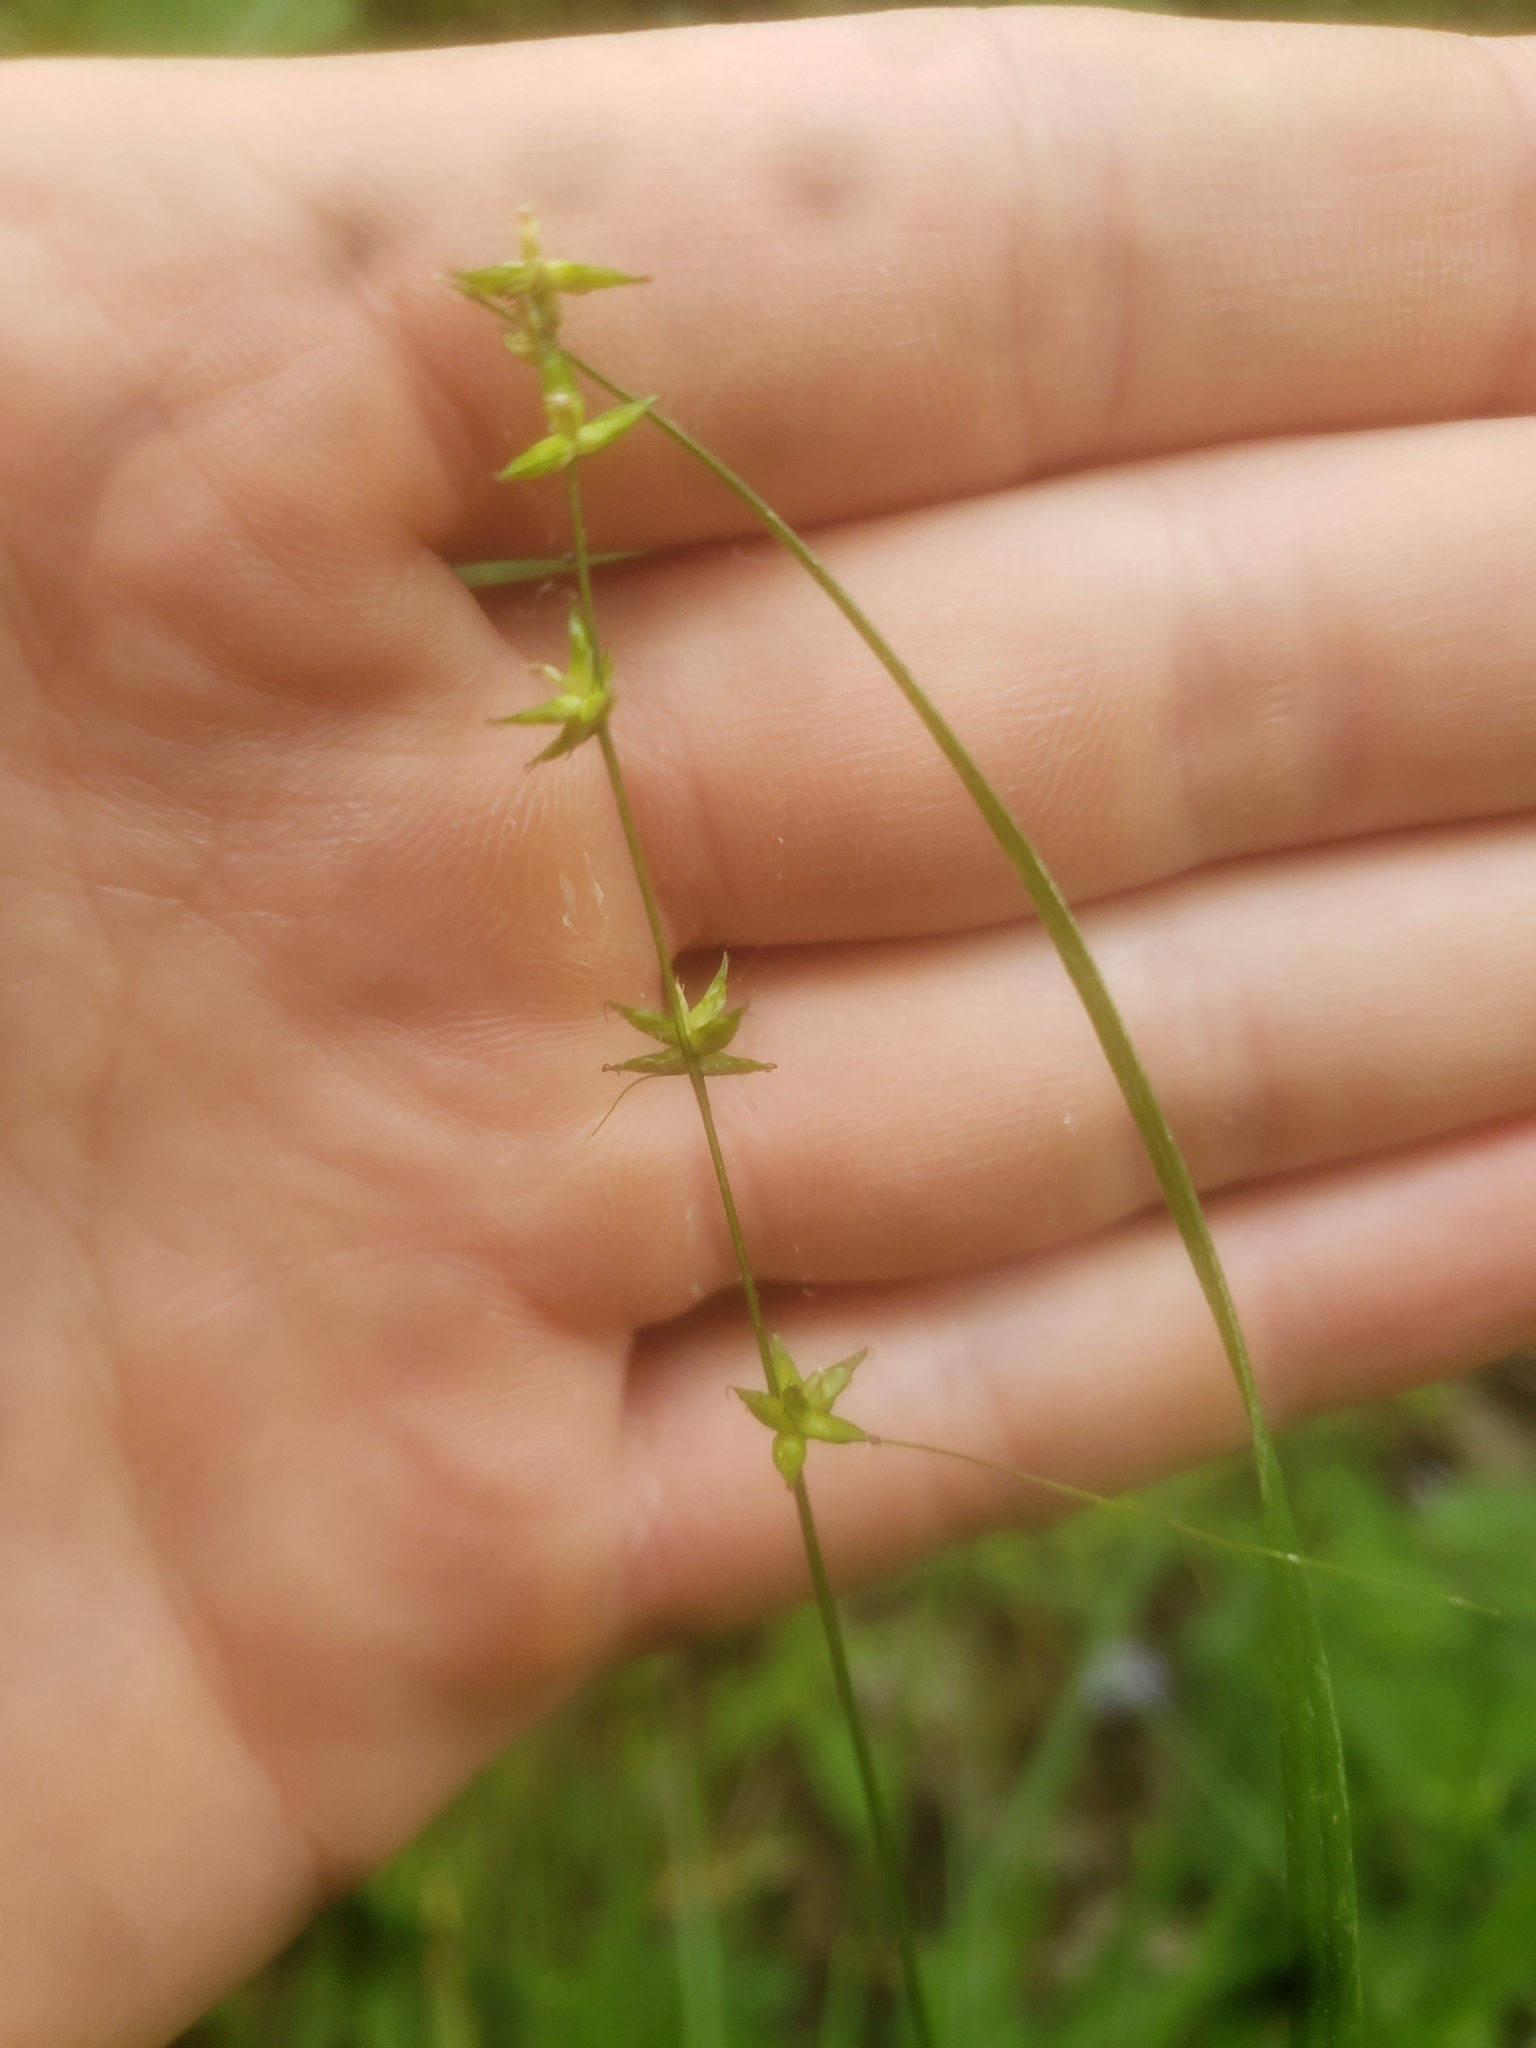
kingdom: Plantae
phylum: Tracheophyta
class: Liliopsida
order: Poales
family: Cyperaceae
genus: Carex
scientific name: Carex radiata
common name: Eastern star sedge
